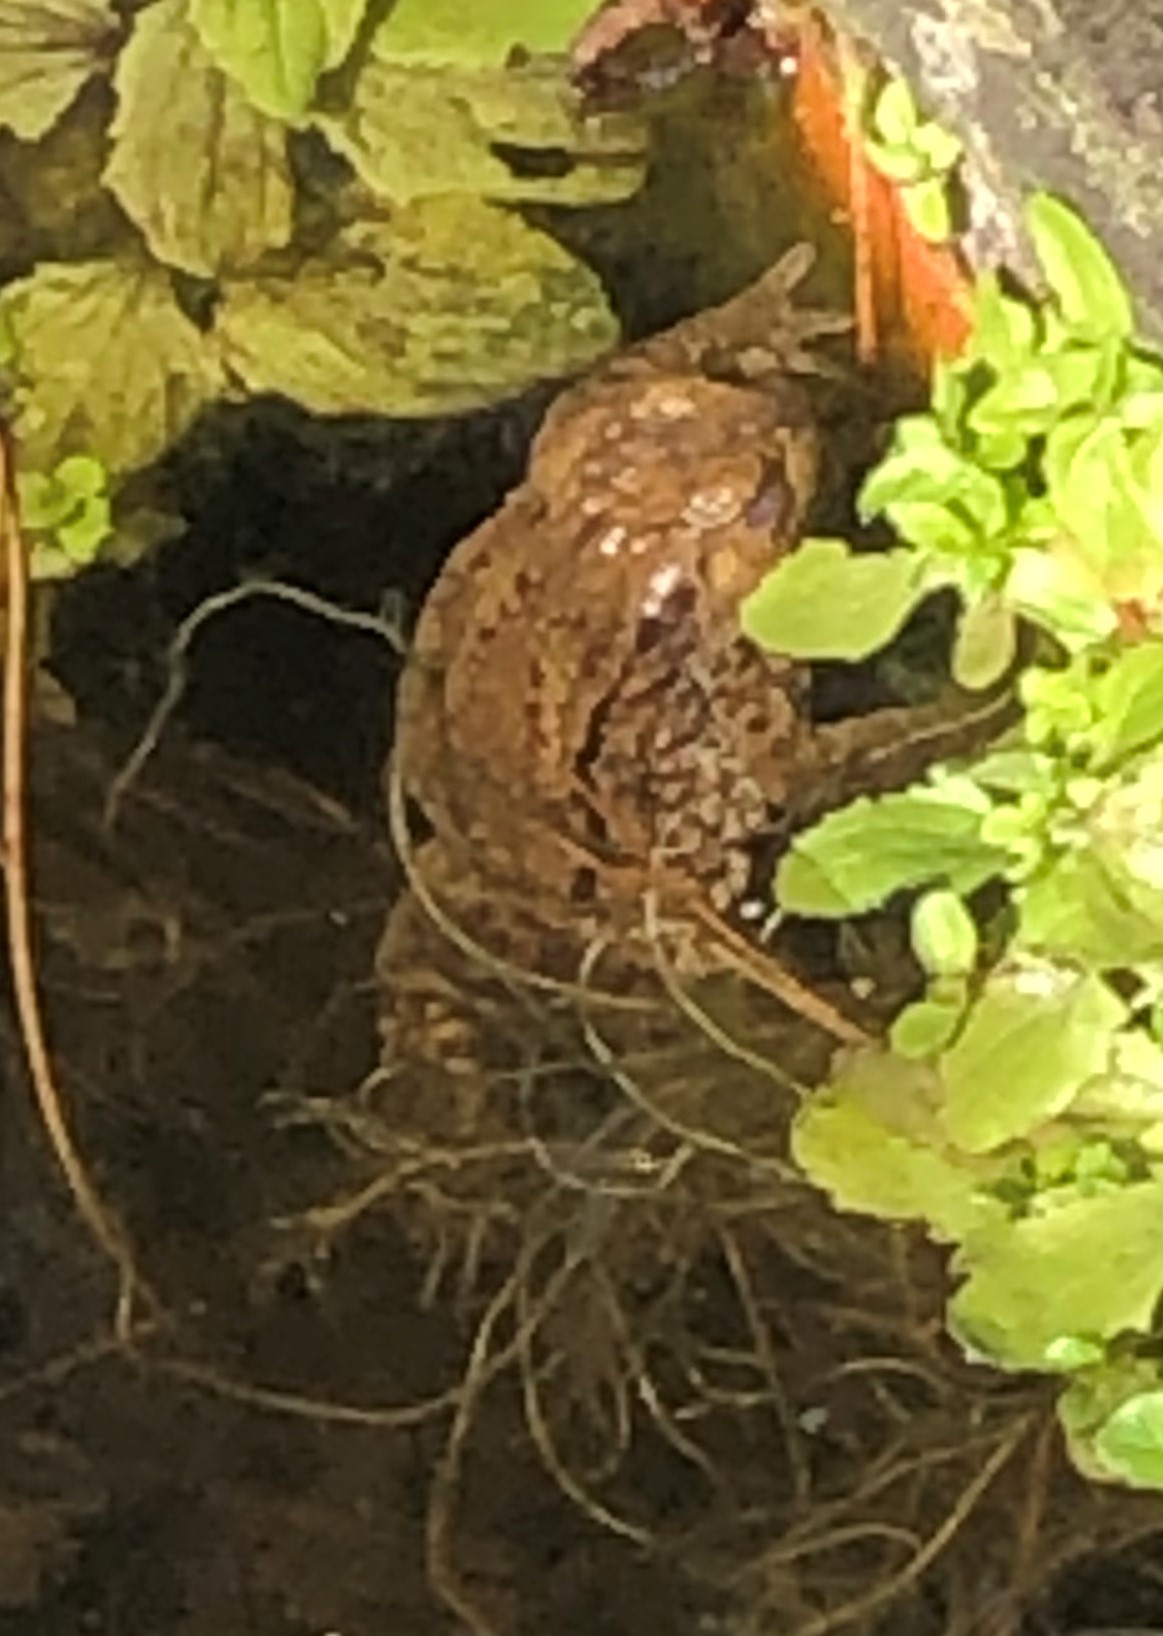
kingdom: Animalia
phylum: Chordata
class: Amphibia
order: Anura
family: Bufonidae
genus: Bufo
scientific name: Bufo bufo
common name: Common toad
